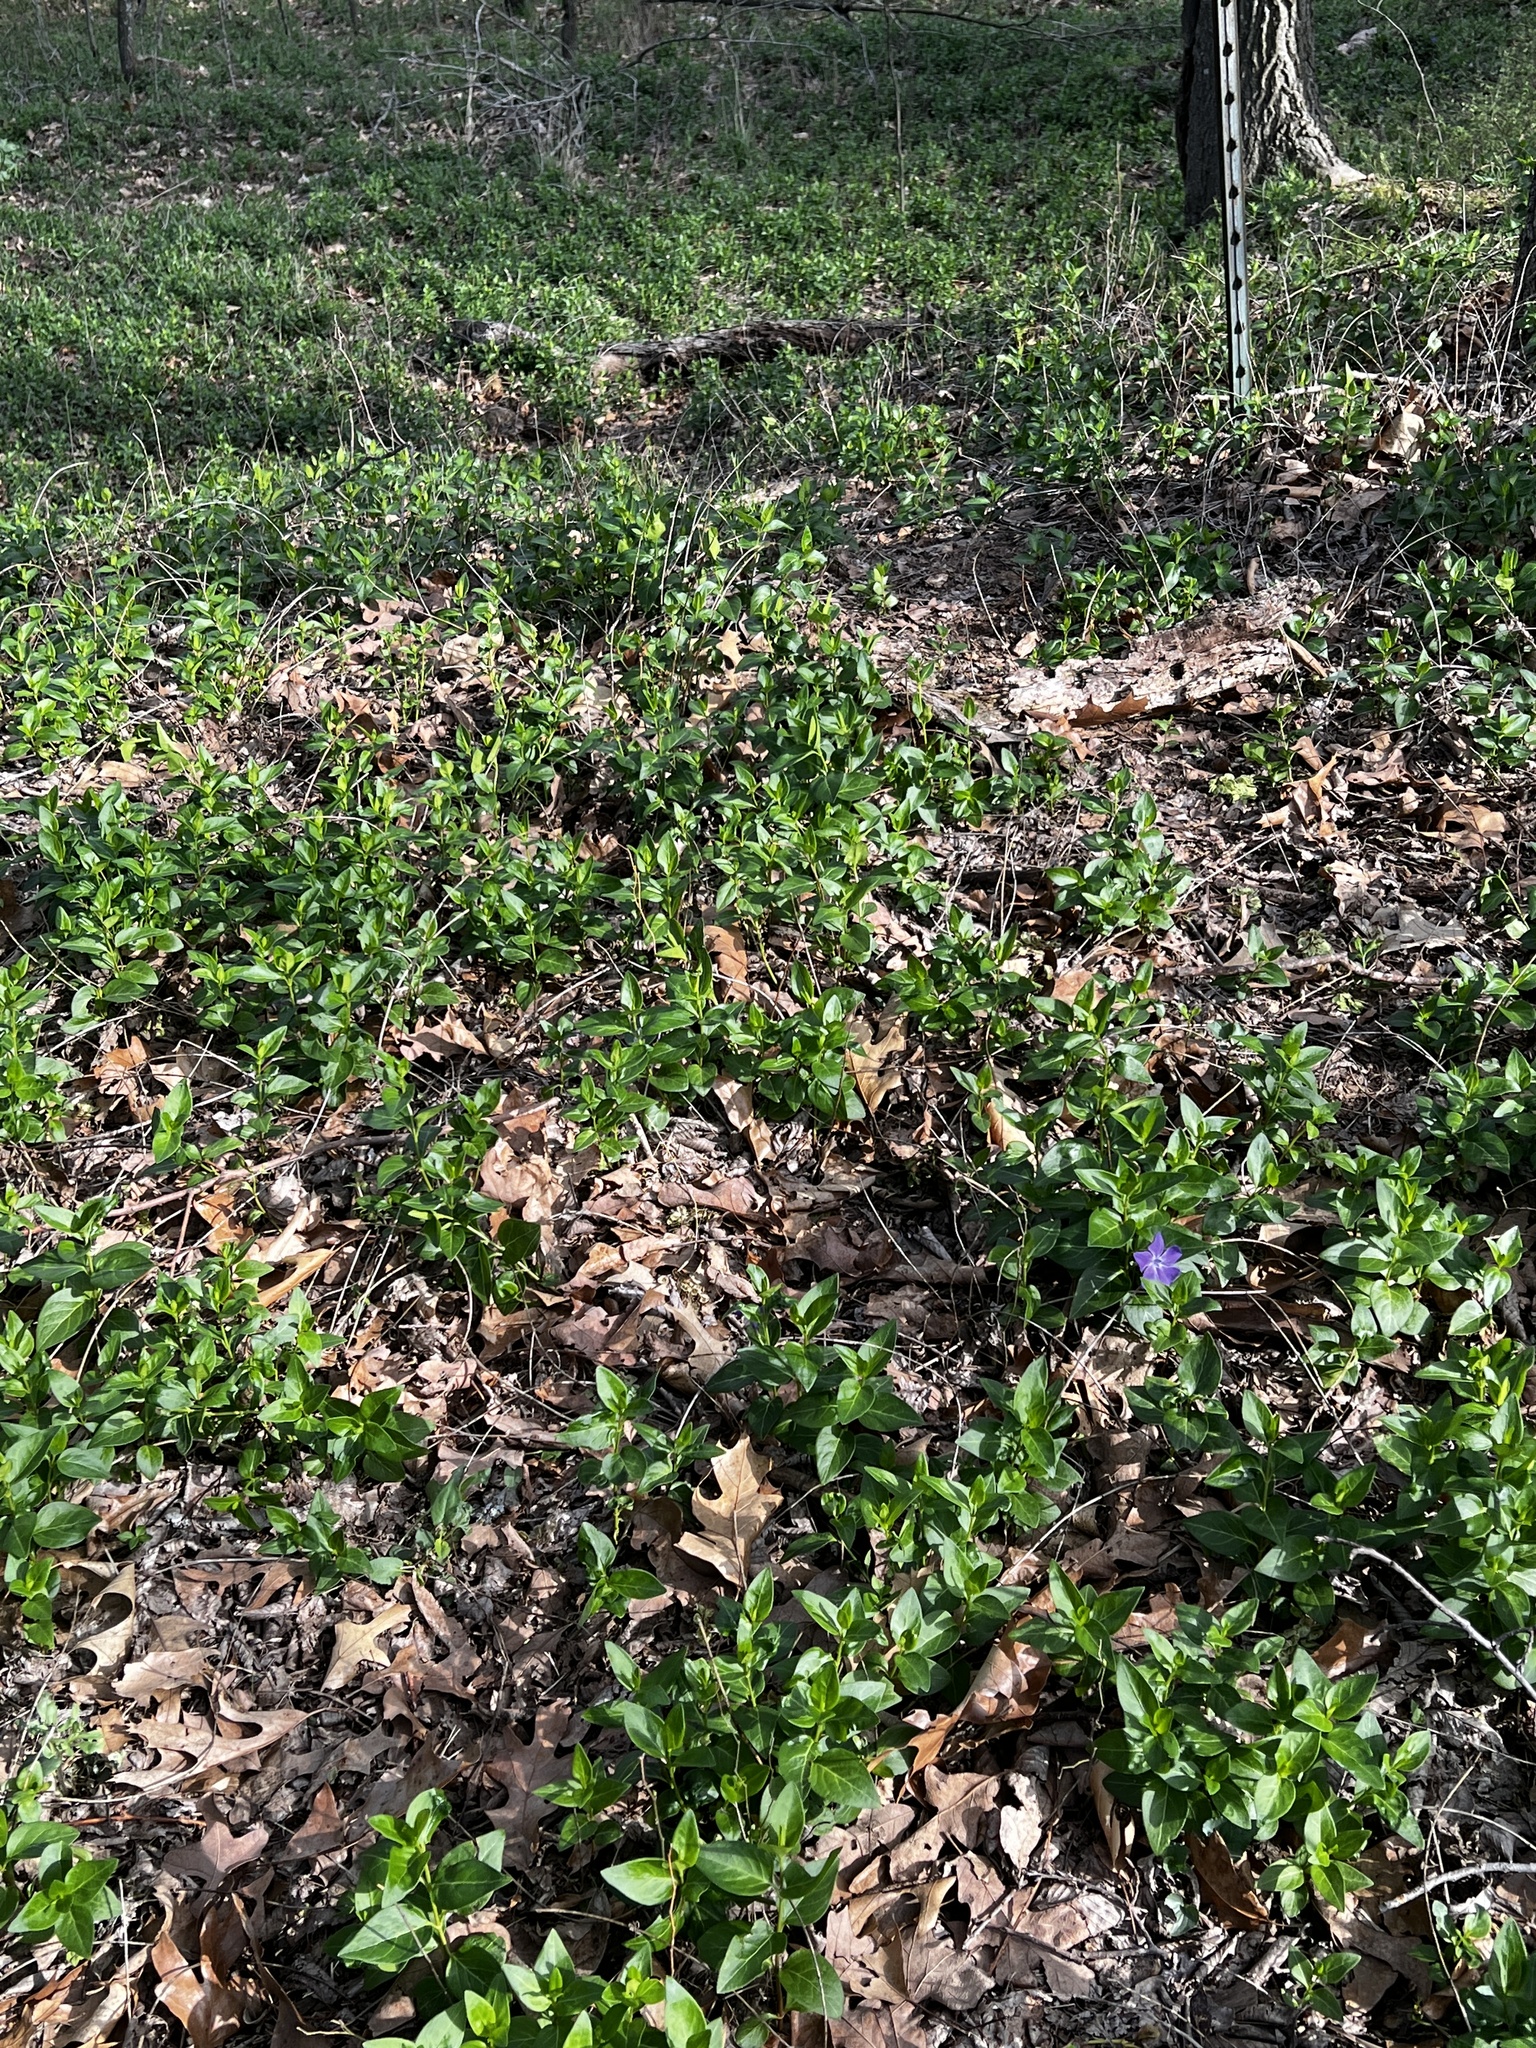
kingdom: Plantae
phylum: Tracheophyta
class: Magnoliopsida
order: Gentianales
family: Apocynaceae
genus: Vinca
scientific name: Vinca major
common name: Greater periwinkle
